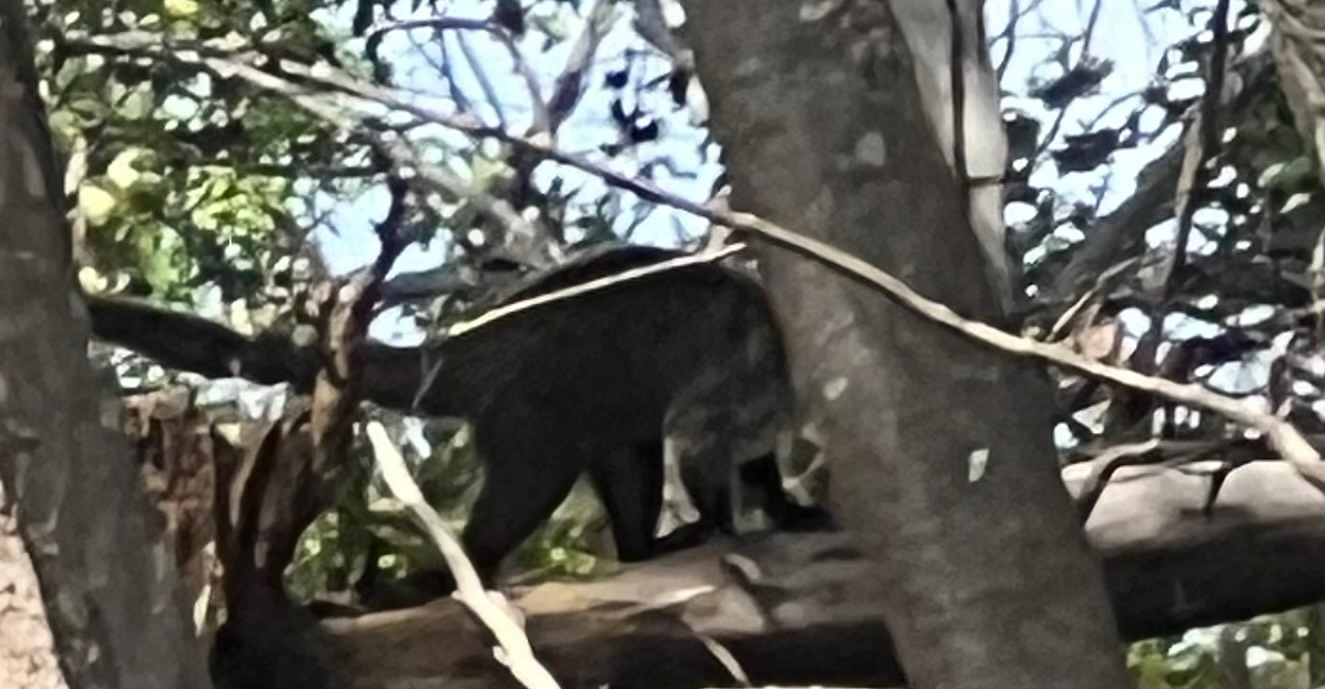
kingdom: Animalia
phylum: Chordata
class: Mammalia
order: Carnivora
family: Procyonidae
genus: Nasua
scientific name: Nasua narica
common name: White-nosed coati
